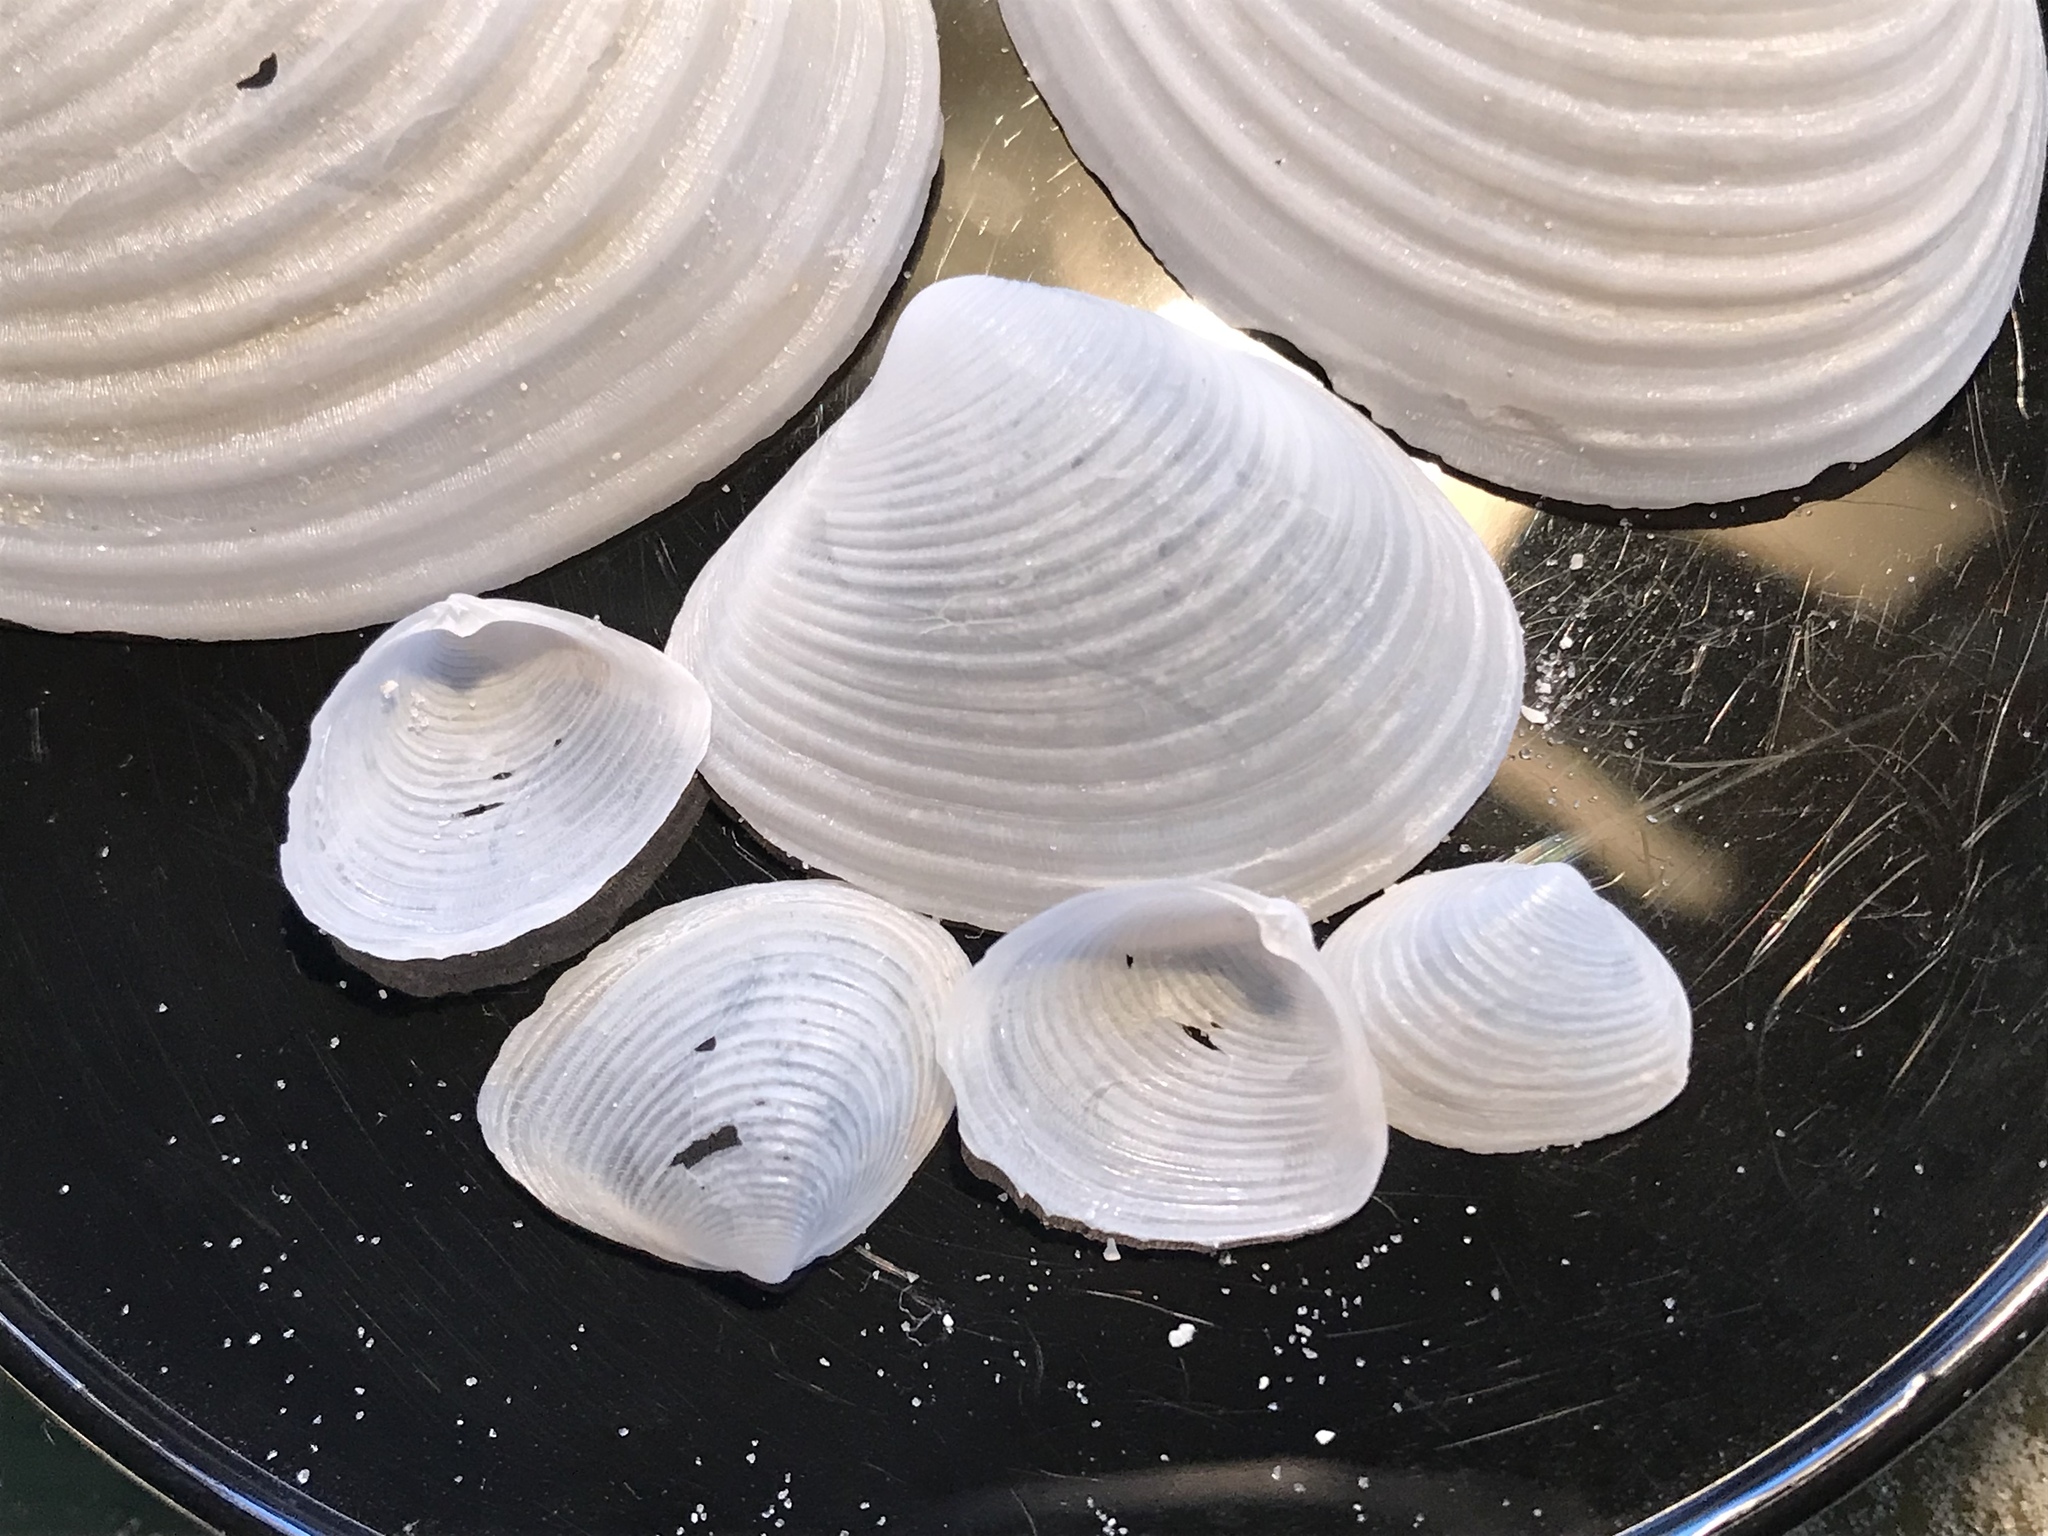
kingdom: Animalia
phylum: Mollusca
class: Bivalvia
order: Venerida
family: Anatinellidae
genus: Raeta
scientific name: Raeta plicatella
